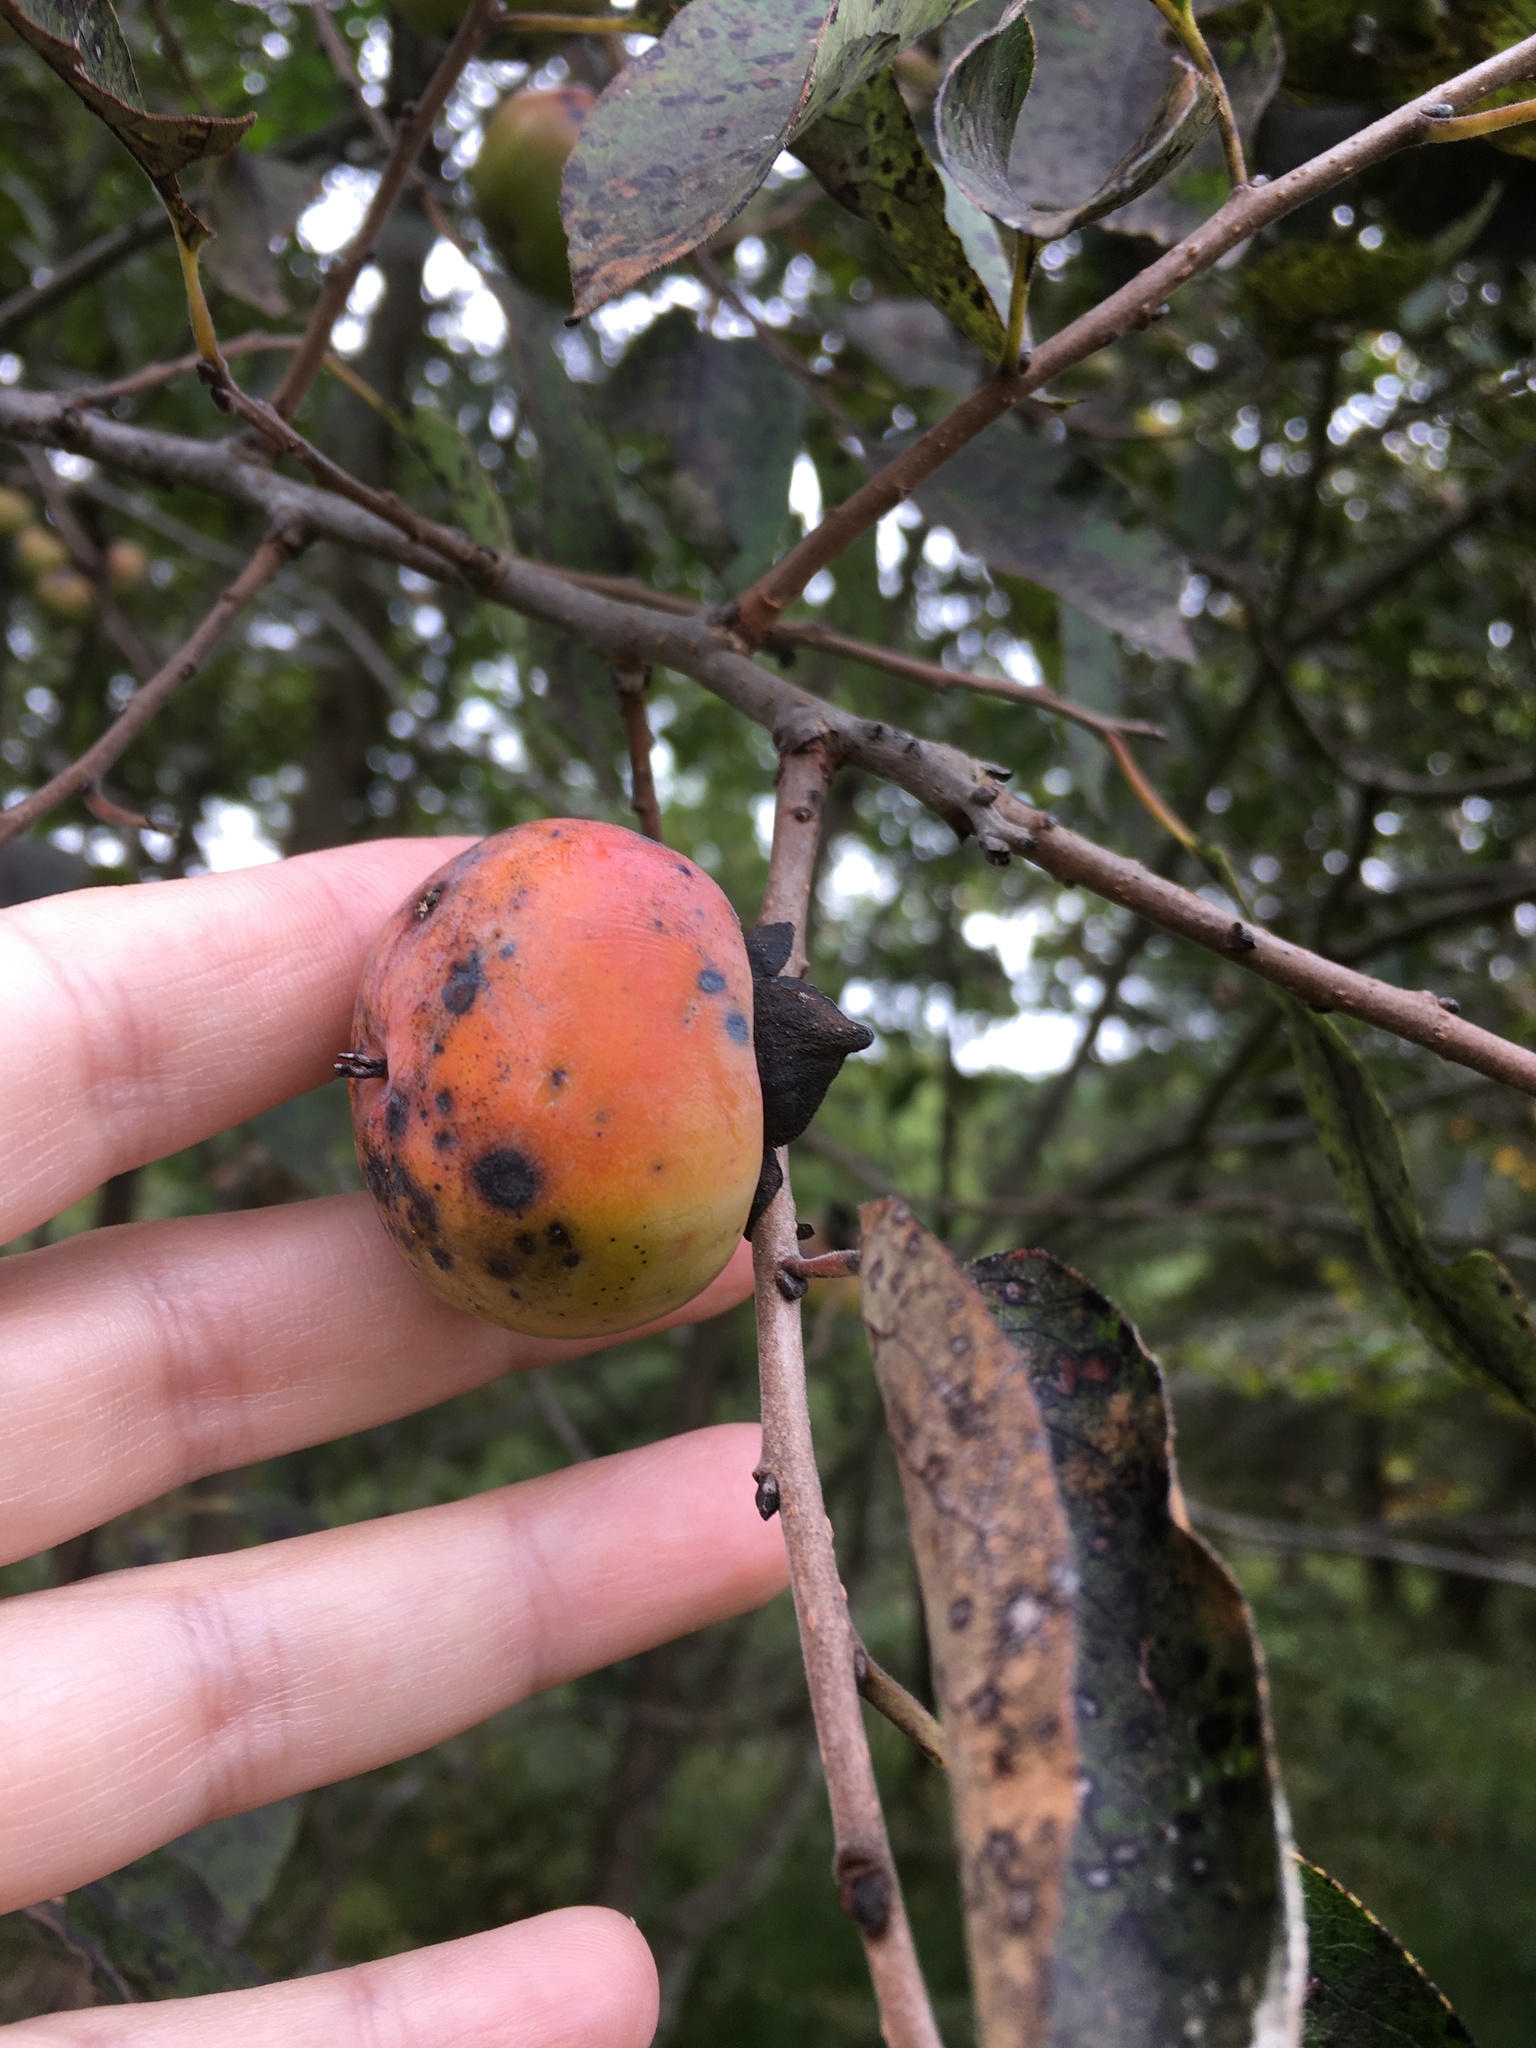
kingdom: Plantae
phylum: Tracheophyta
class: Magnoliopsida
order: Ericales
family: Ebenaceae
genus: Diospyros
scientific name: Diospyros virginiana
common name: Persimmon
